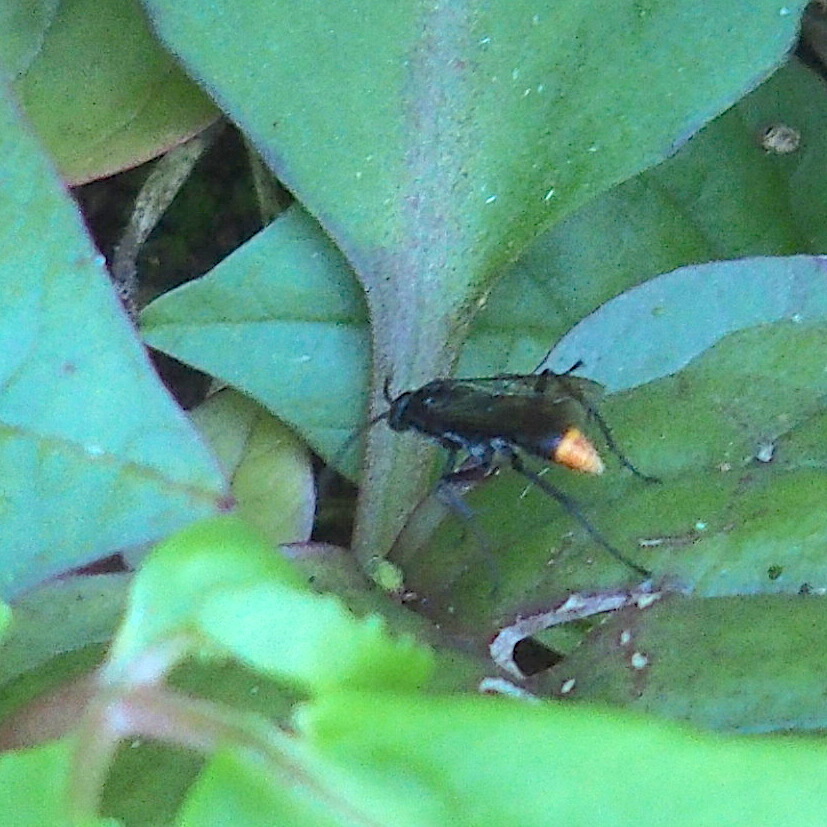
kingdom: Animalia
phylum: Arthropoda
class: Insecta
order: Hymenoptera
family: Pompilidae
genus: Tachypompilus
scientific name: Tachypompilus analis
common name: Spider wasp
